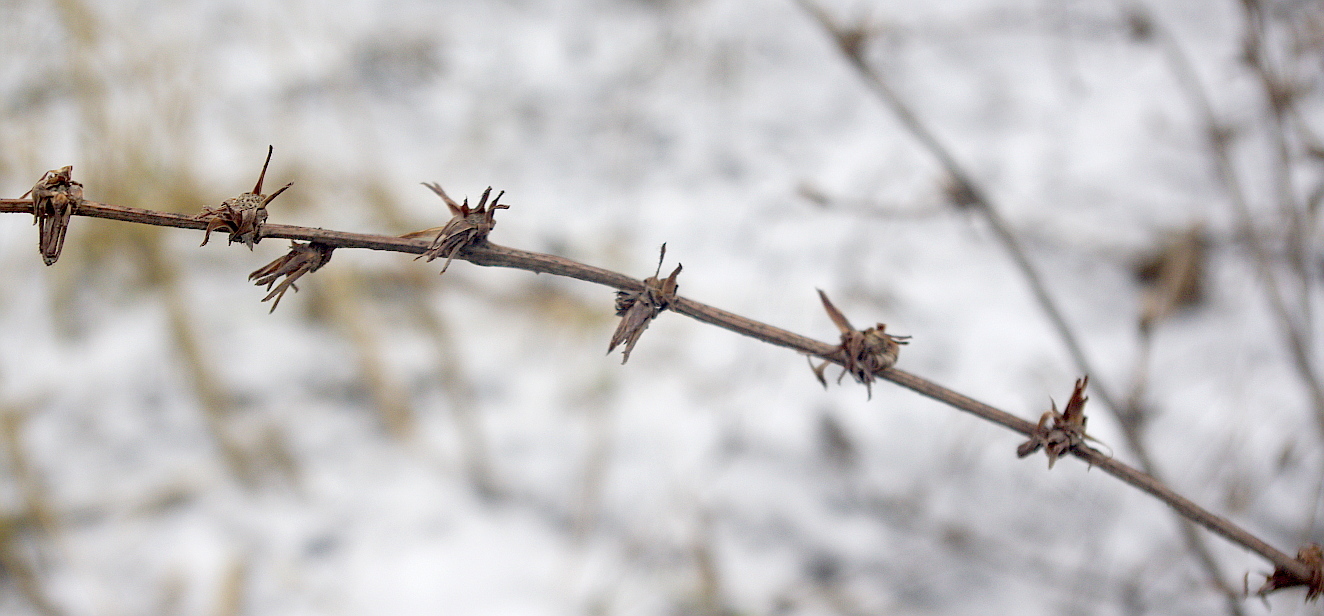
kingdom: Plantae
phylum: Tracheophyta
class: Magnoliopsida
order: Asterales
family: Asteraceae
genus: Cichorium
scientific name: Cichorium intybus
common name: Chicory
